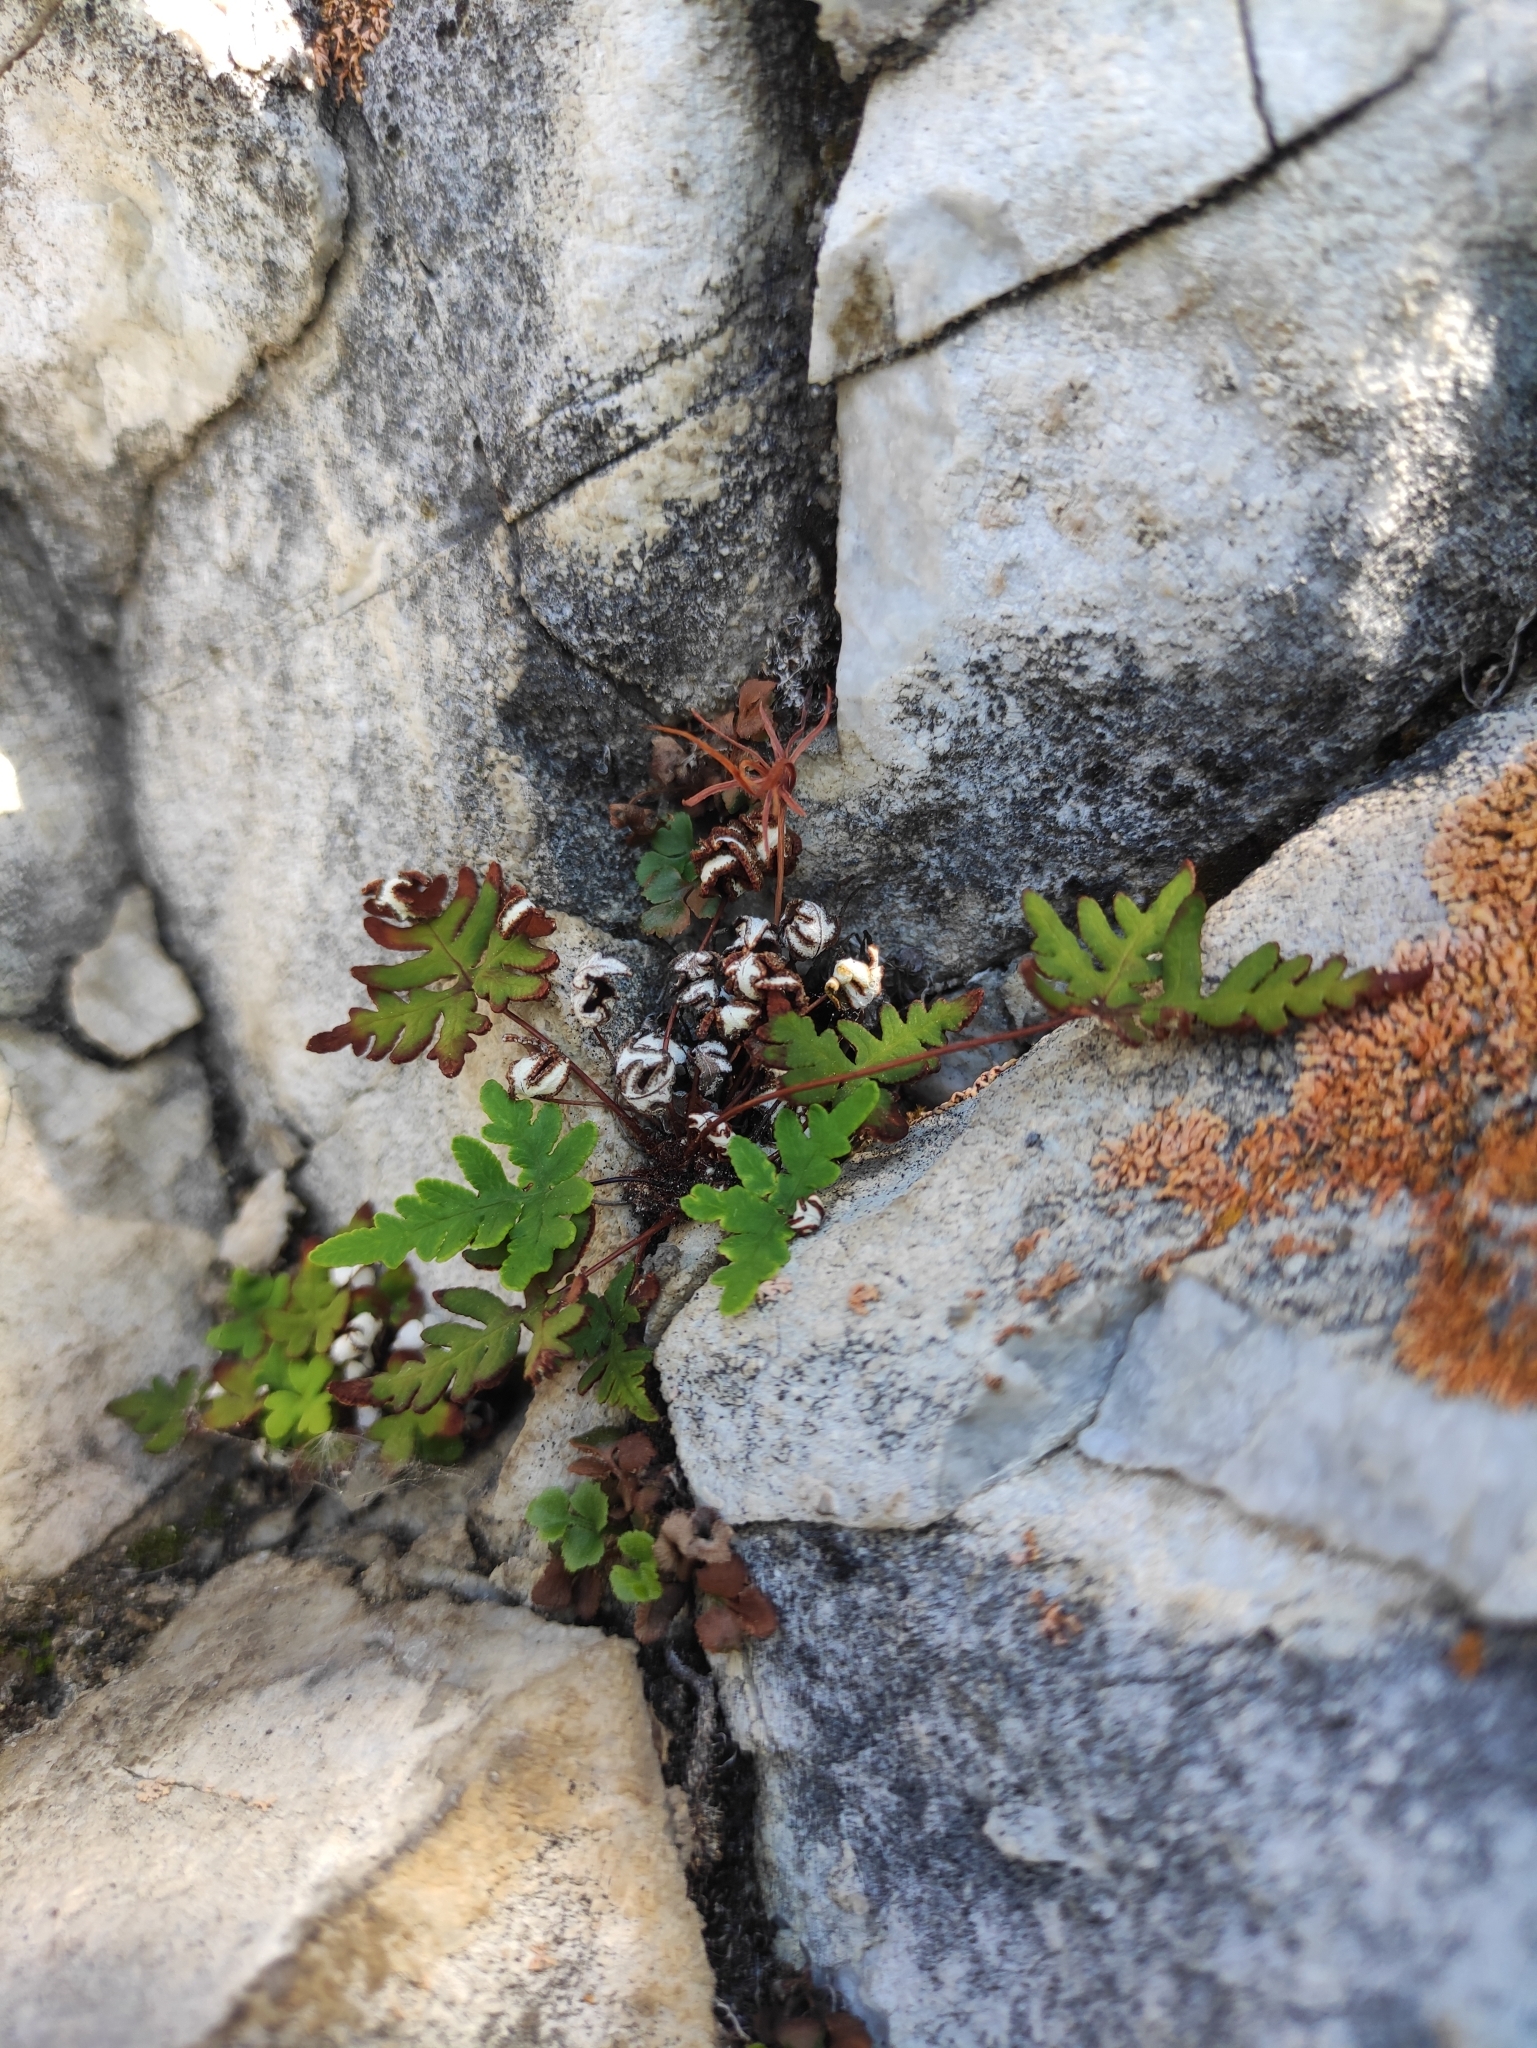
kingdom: Plantae
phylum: Tracheophyta
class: Polypodiopsida
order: Polypodiales
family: Pteridaceae
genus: Aleuritopteris
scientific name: Aleuritopteris argentea
